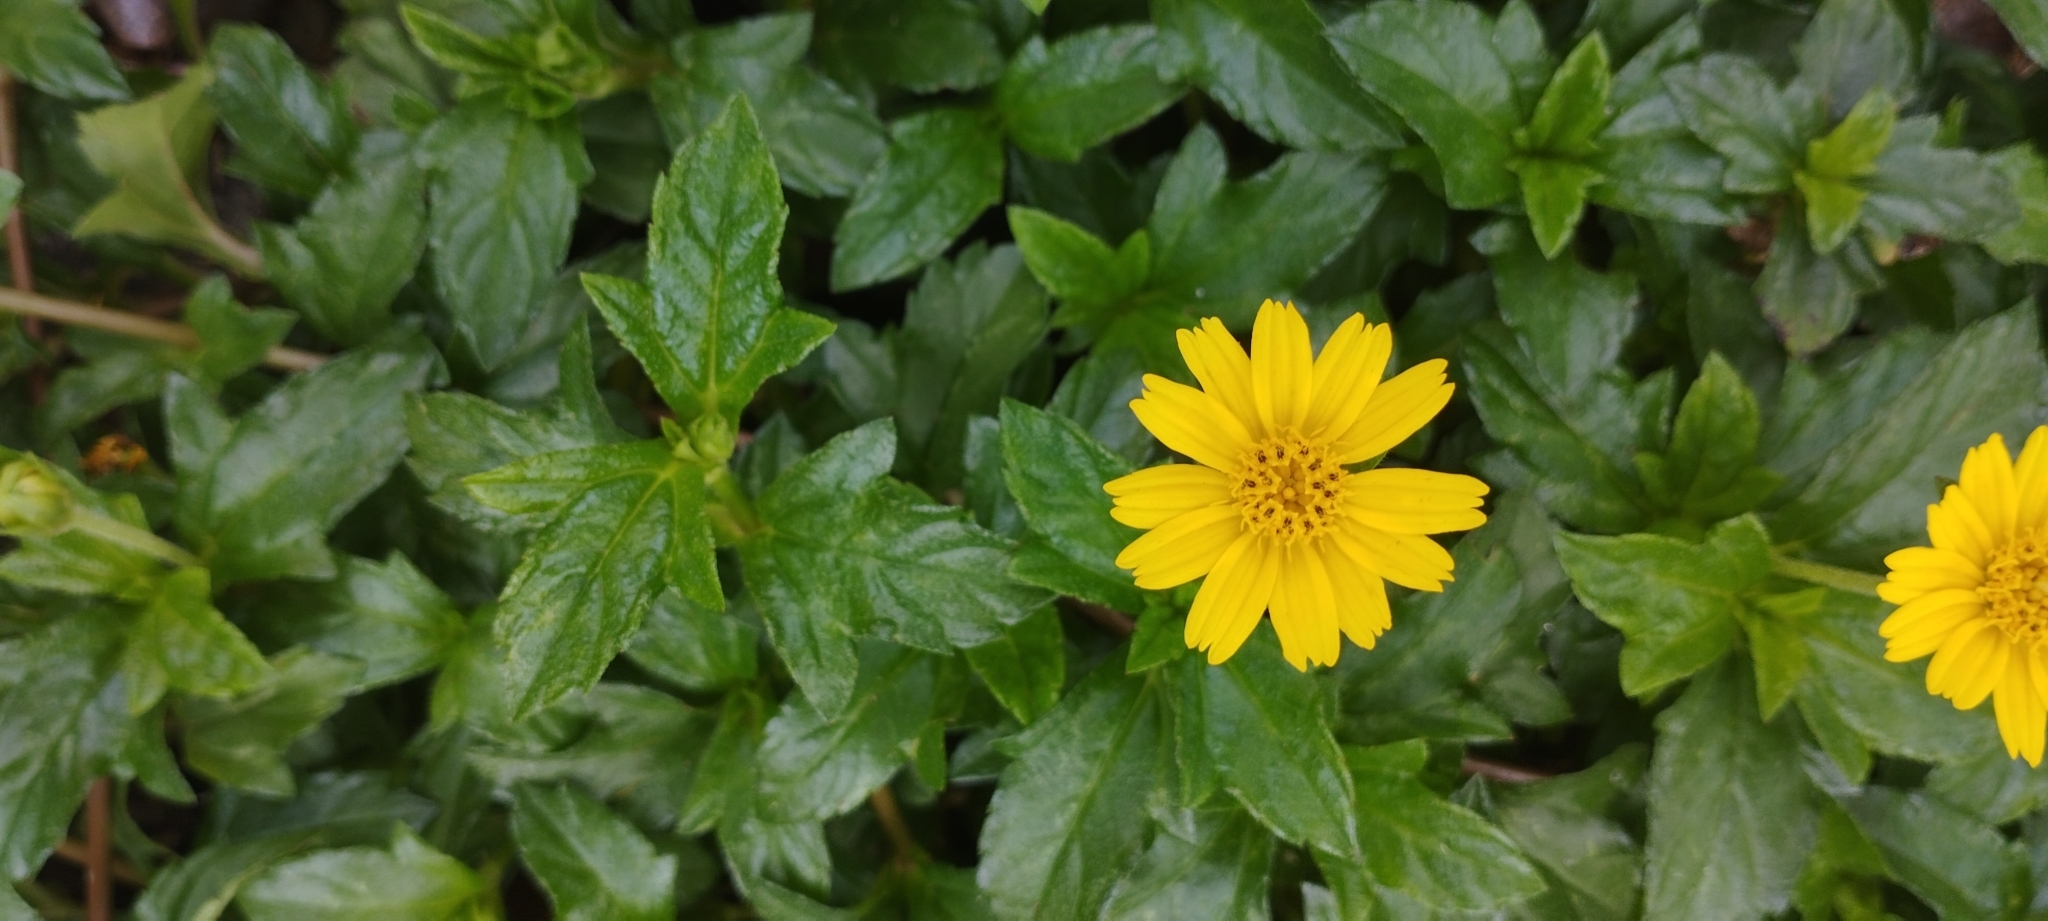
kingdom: Plantae
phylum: Tracheophyta
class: Magnoliopsida
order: Asterales
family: Asteraceae
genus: Sphagneticola
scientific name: Sphagneticola trilobata
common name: Bay biscayne creeping-oxeye
